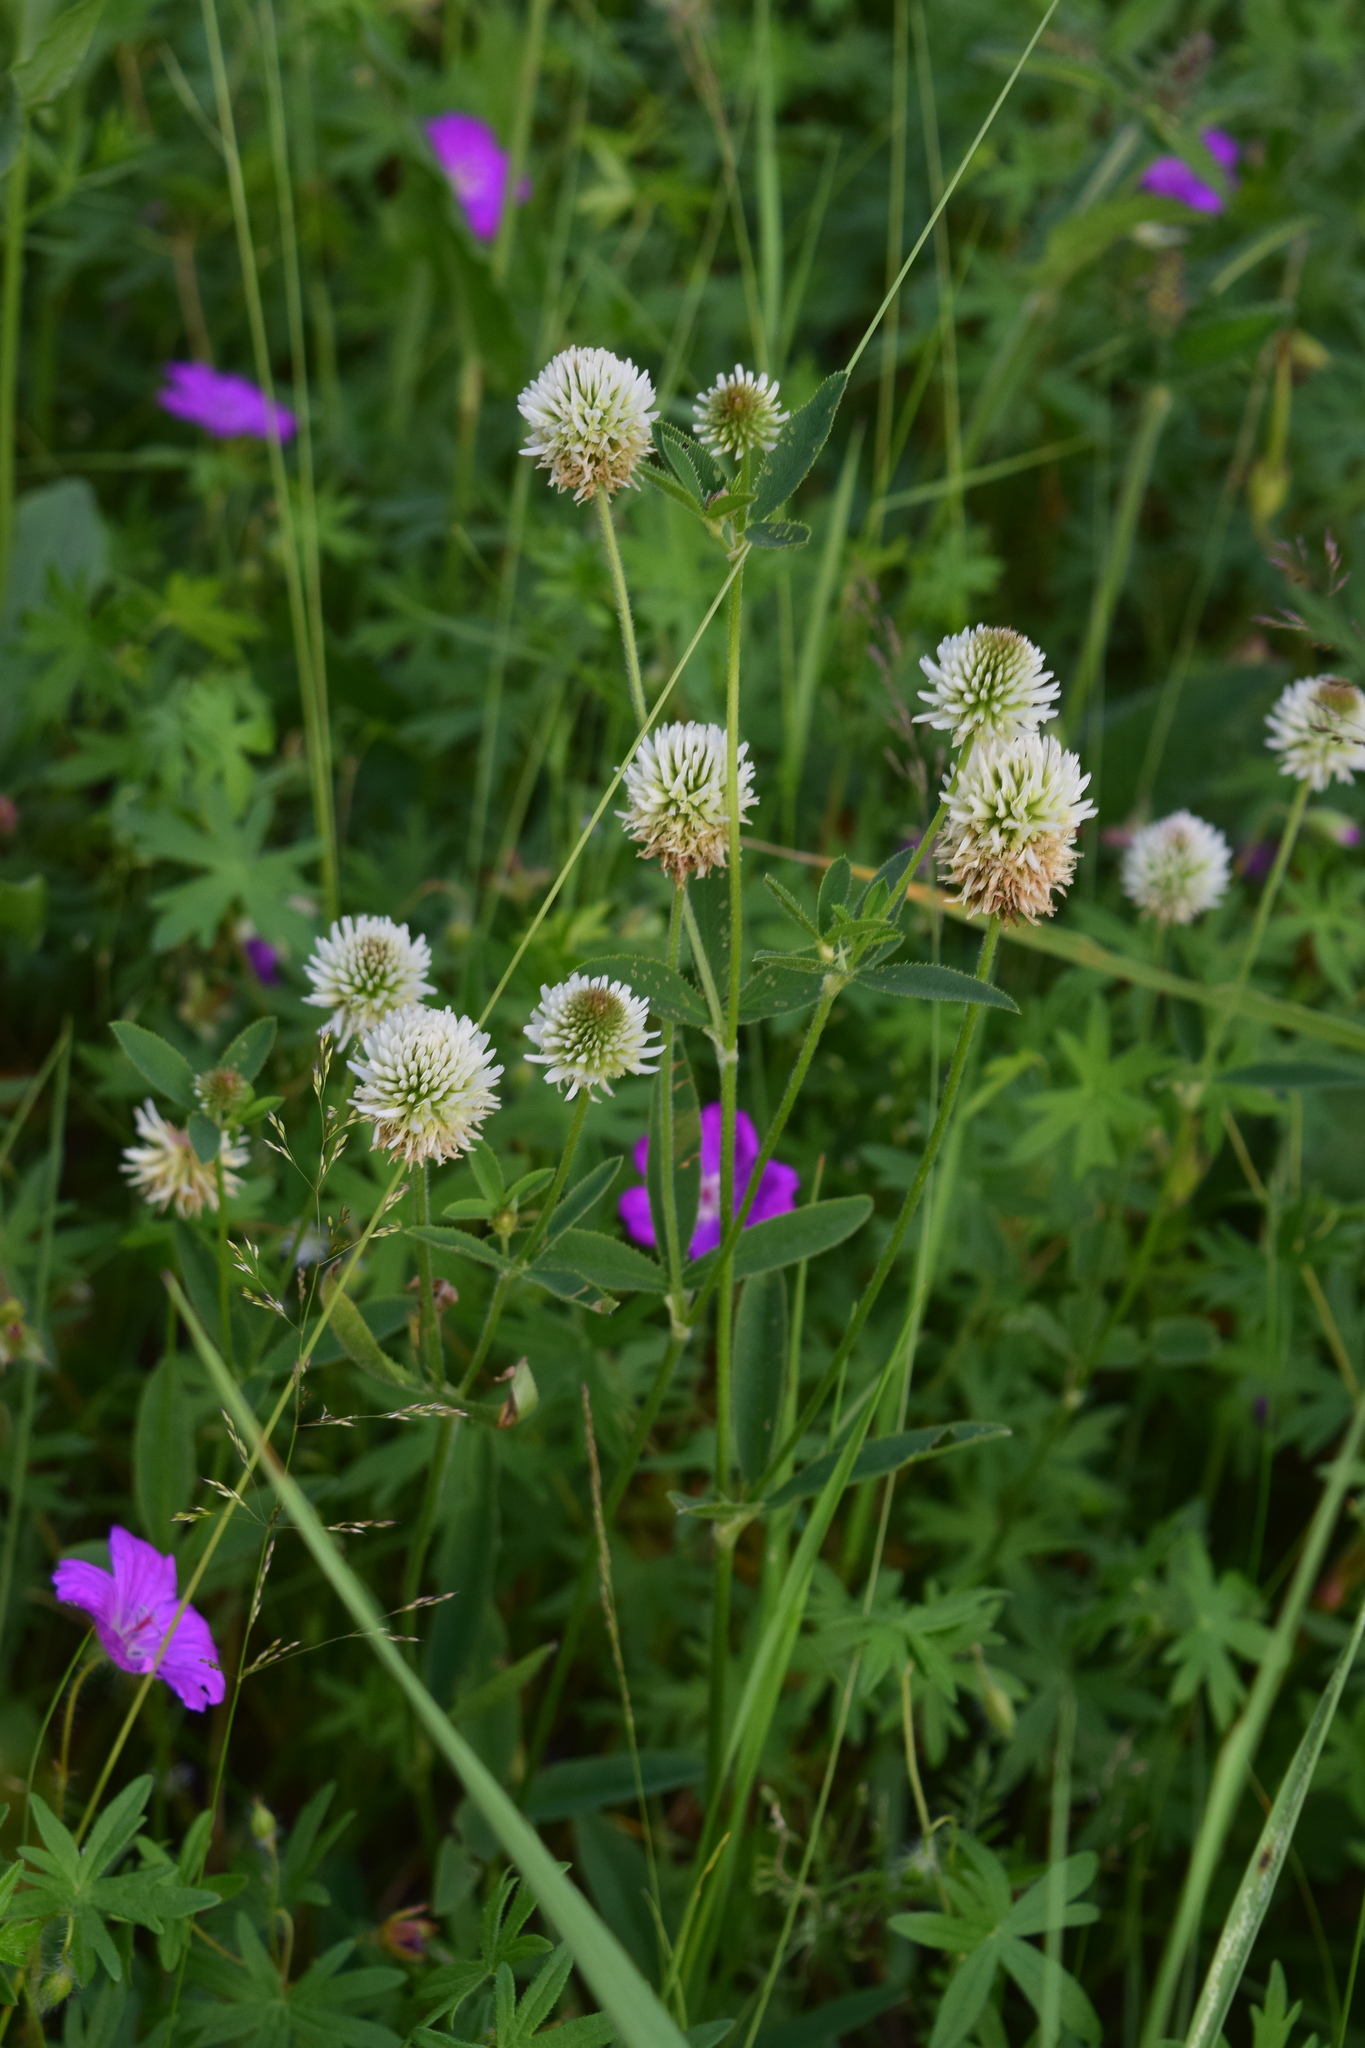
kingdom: Plantae
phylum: Tracheophyta
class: Magnoliopsida
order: Fabales
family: Fabaceae
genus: Trifolium
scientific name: Trifolium montanum
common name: Mountain clover
